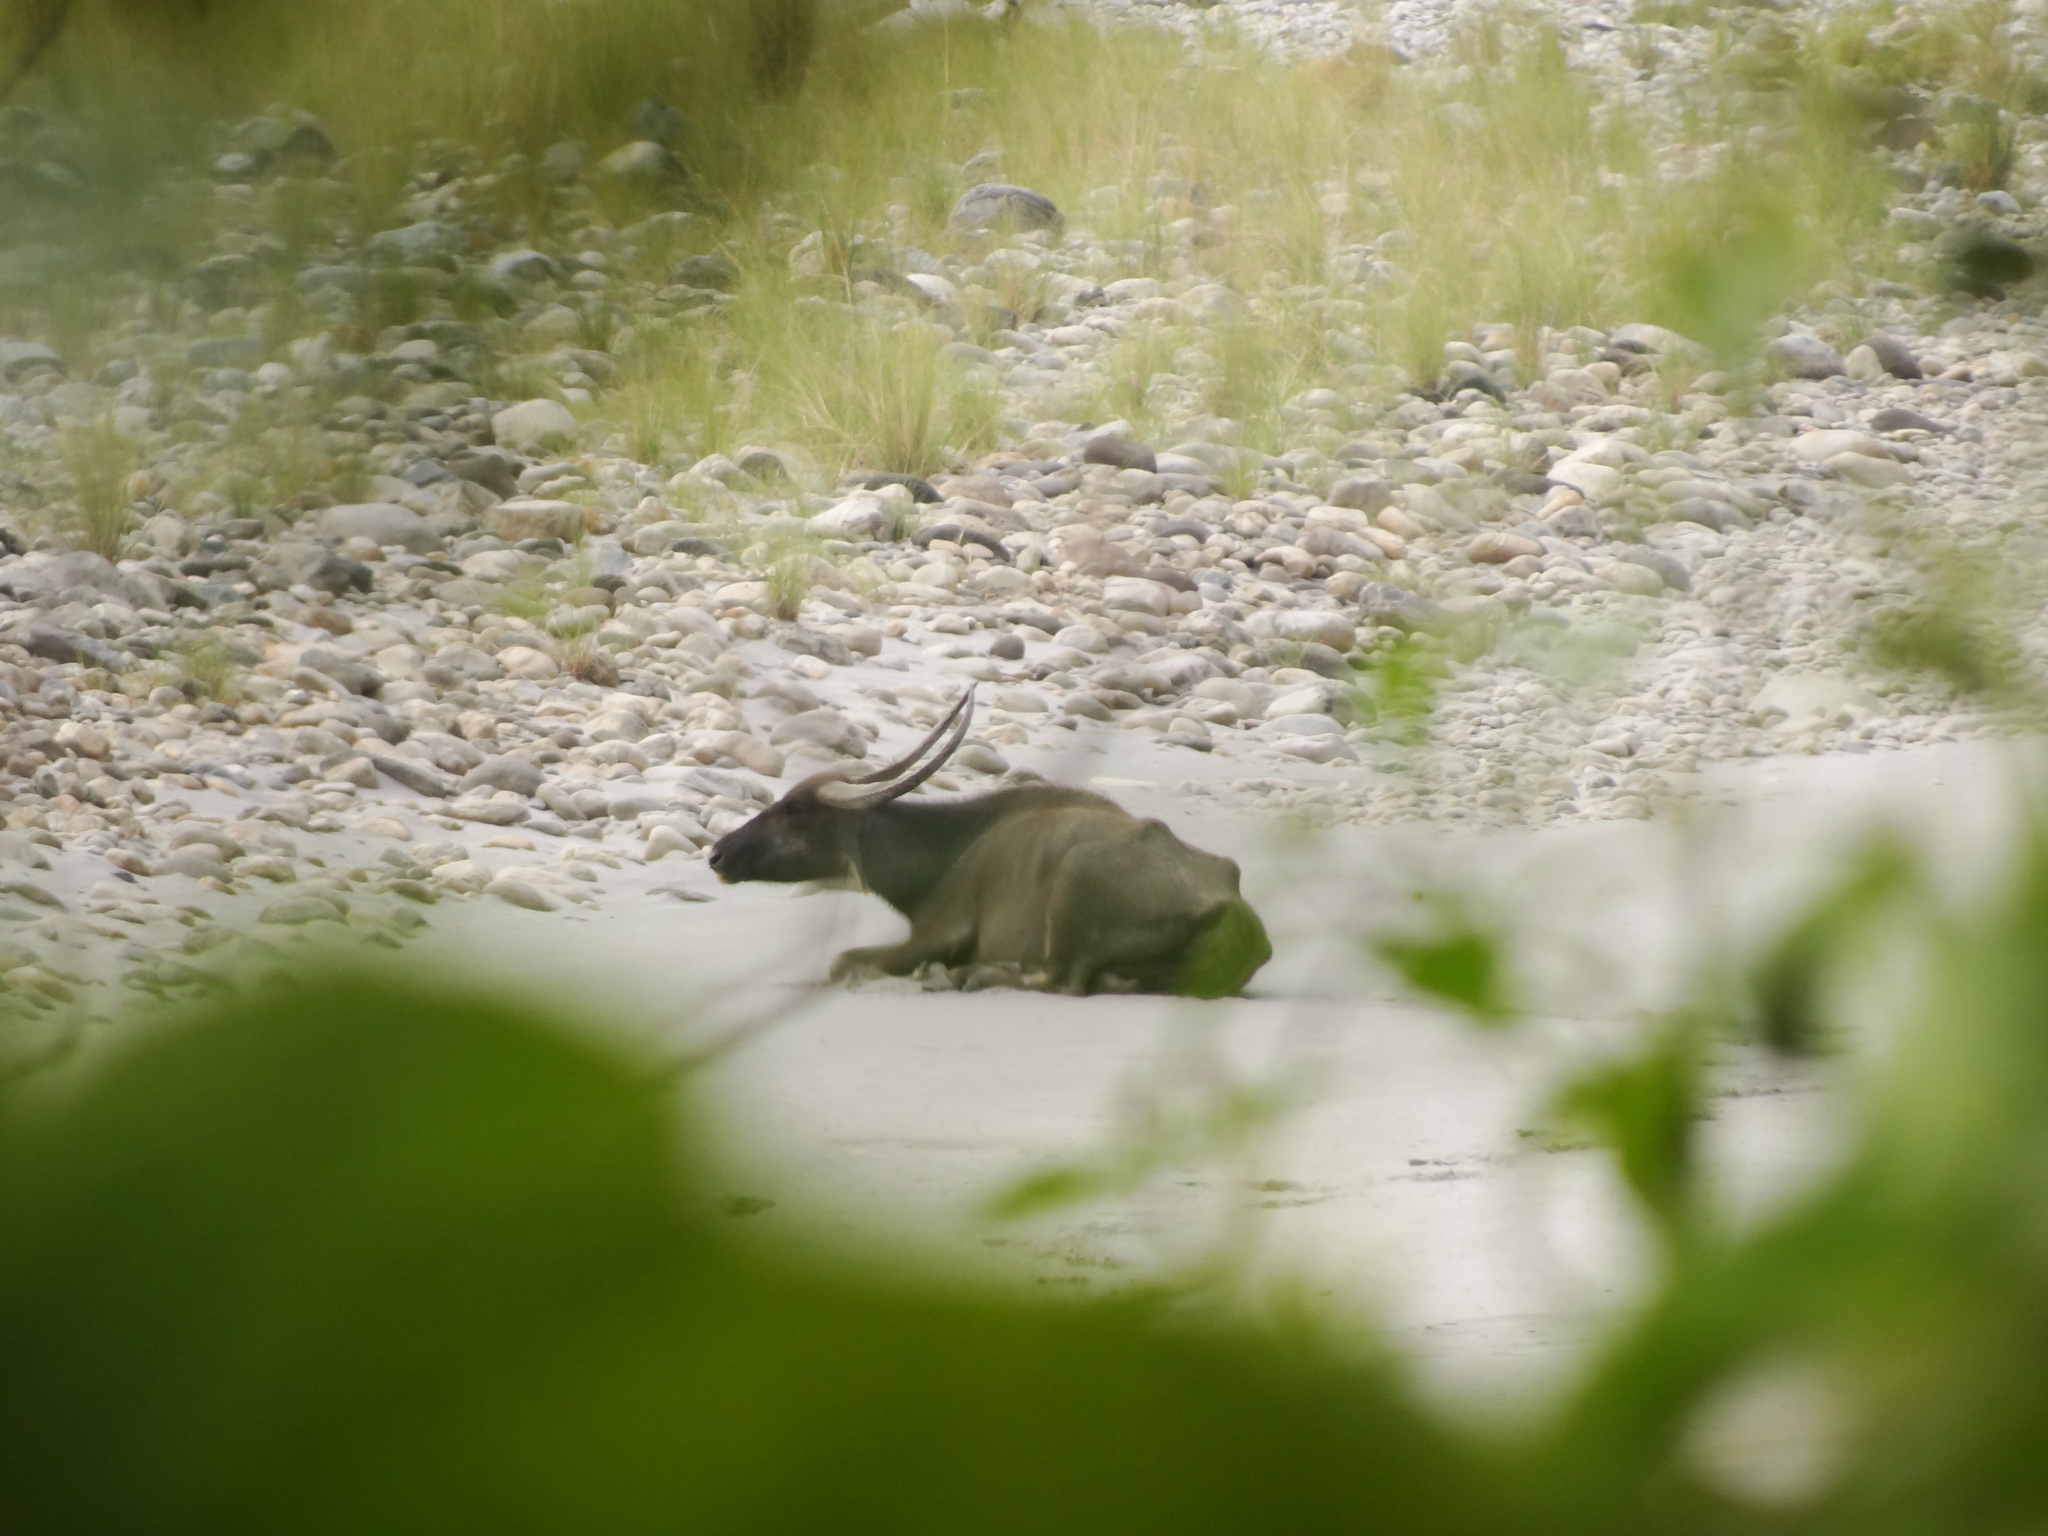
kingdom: Animalia
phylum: Chordata
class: Mammalia
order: Artiodactyla
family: Bovidae
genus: Bubalus
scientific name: Bubalus bubalis
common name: Water buffalo
